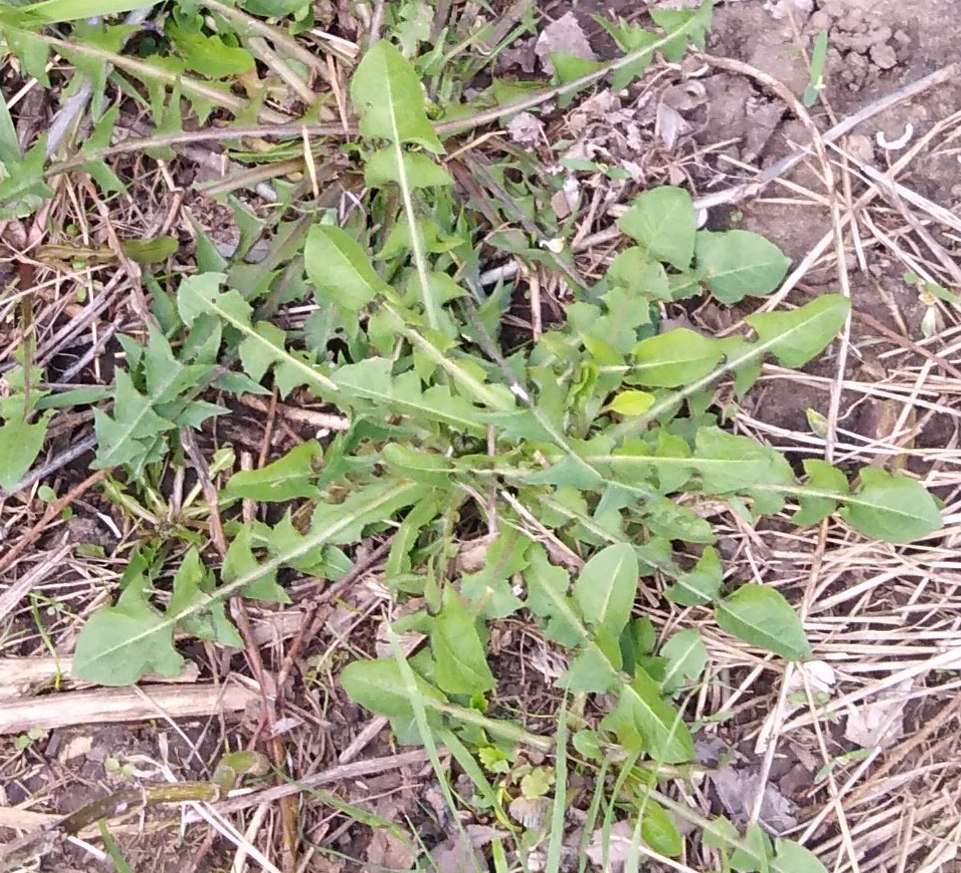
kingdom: Plantae
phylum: Tracheophyta
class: Magnoliopsida
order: Asterales
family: Asteraceae
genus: Taraxacum
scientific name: Taraxacum officinale
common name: Common dandelion
